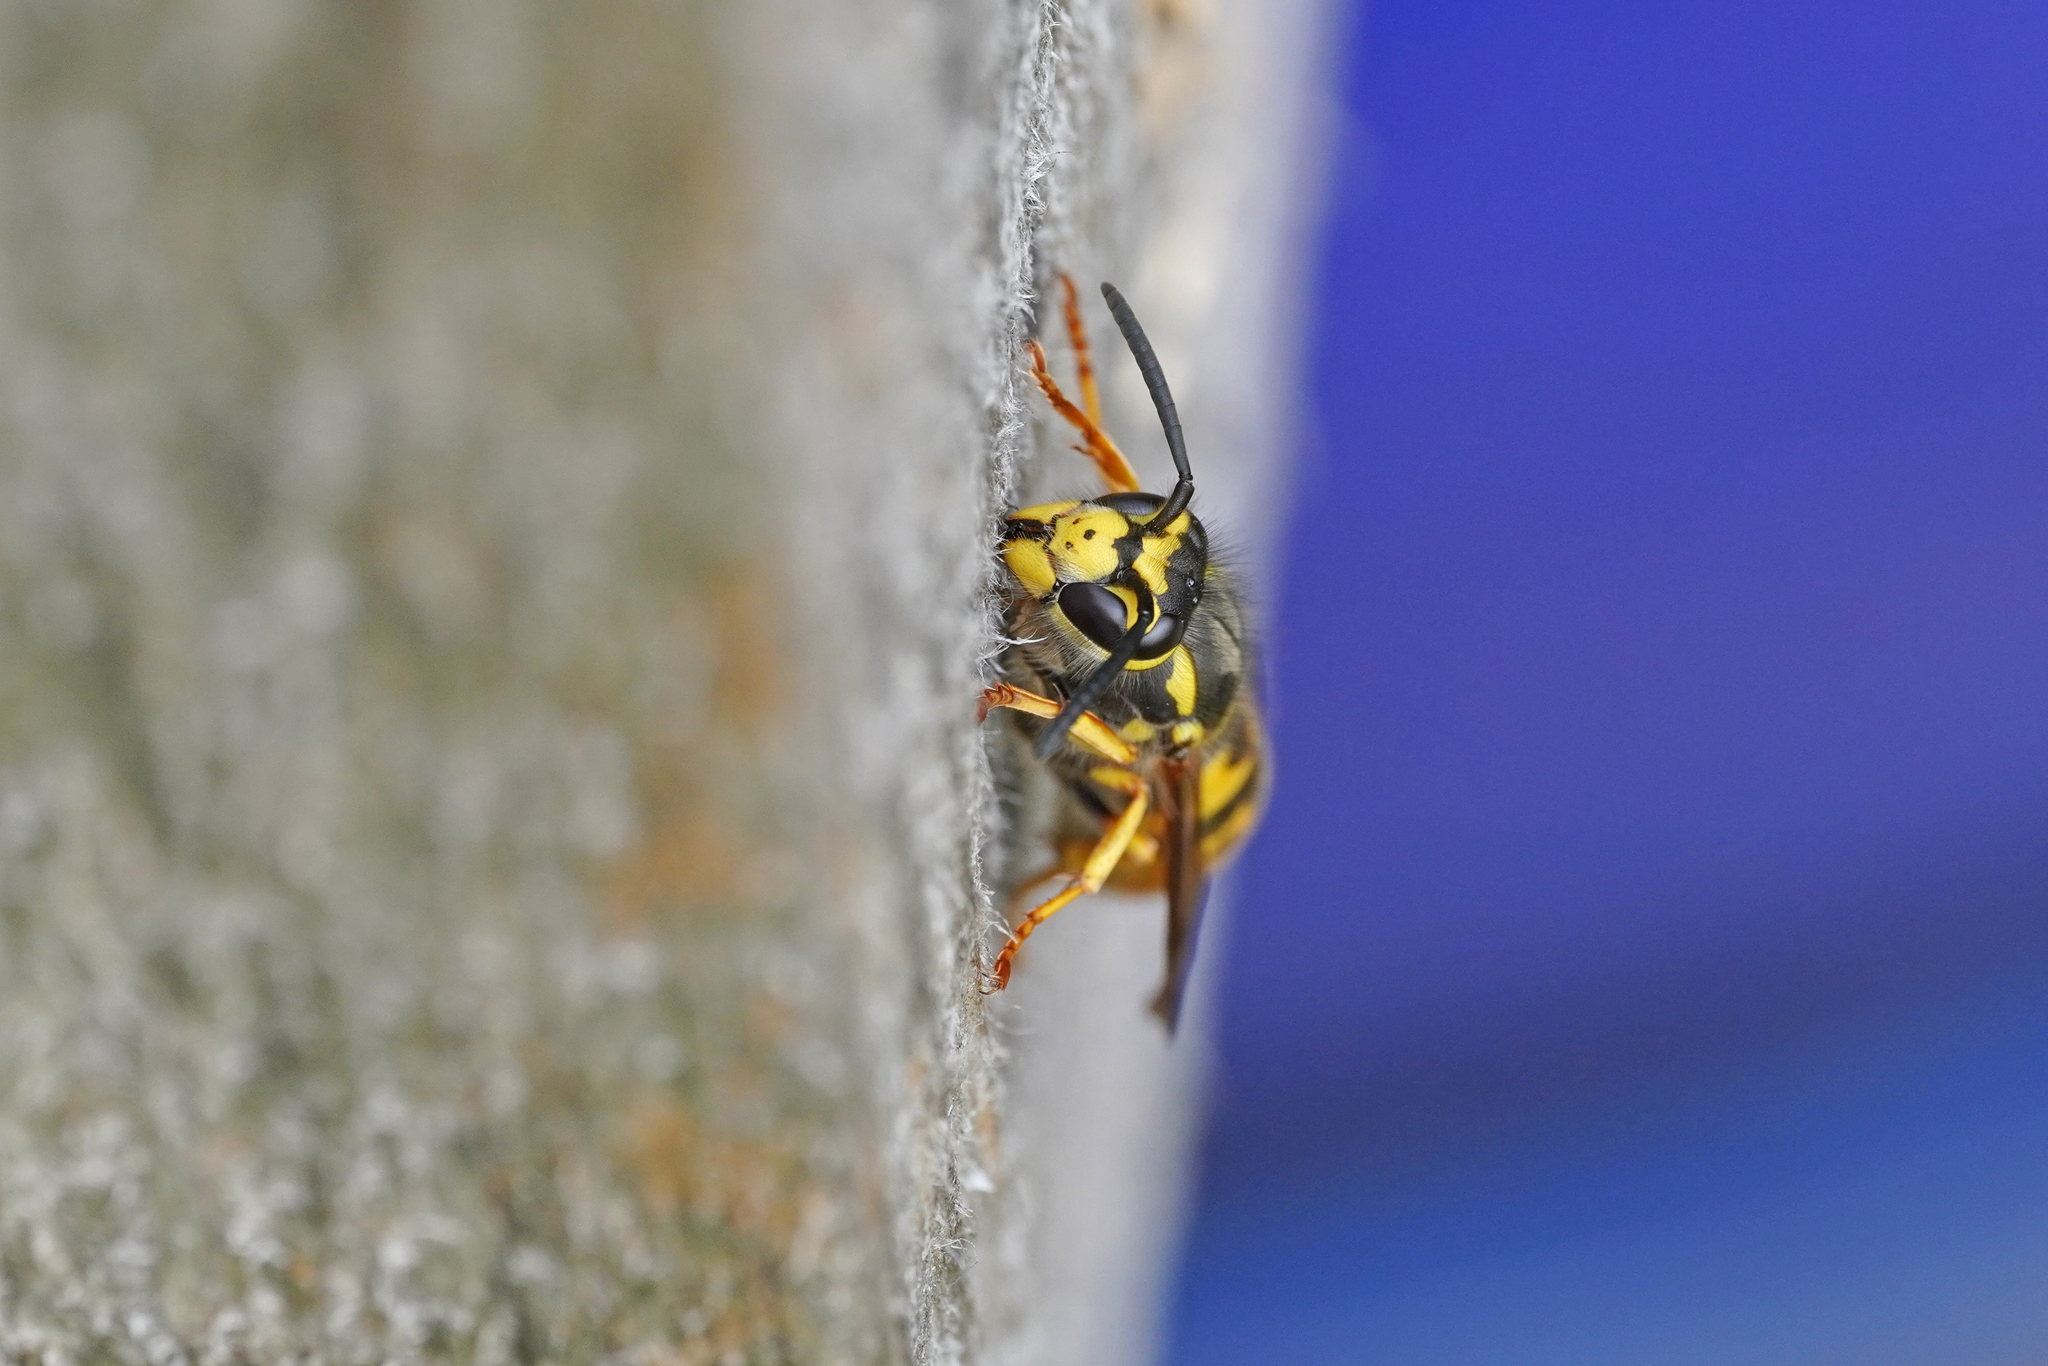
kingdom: Animalia
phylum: Arthropoda
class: Insecta
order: Hymenoptera
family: Vespidae
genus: Vespula
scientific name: Vespula germanica
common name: German wasp
